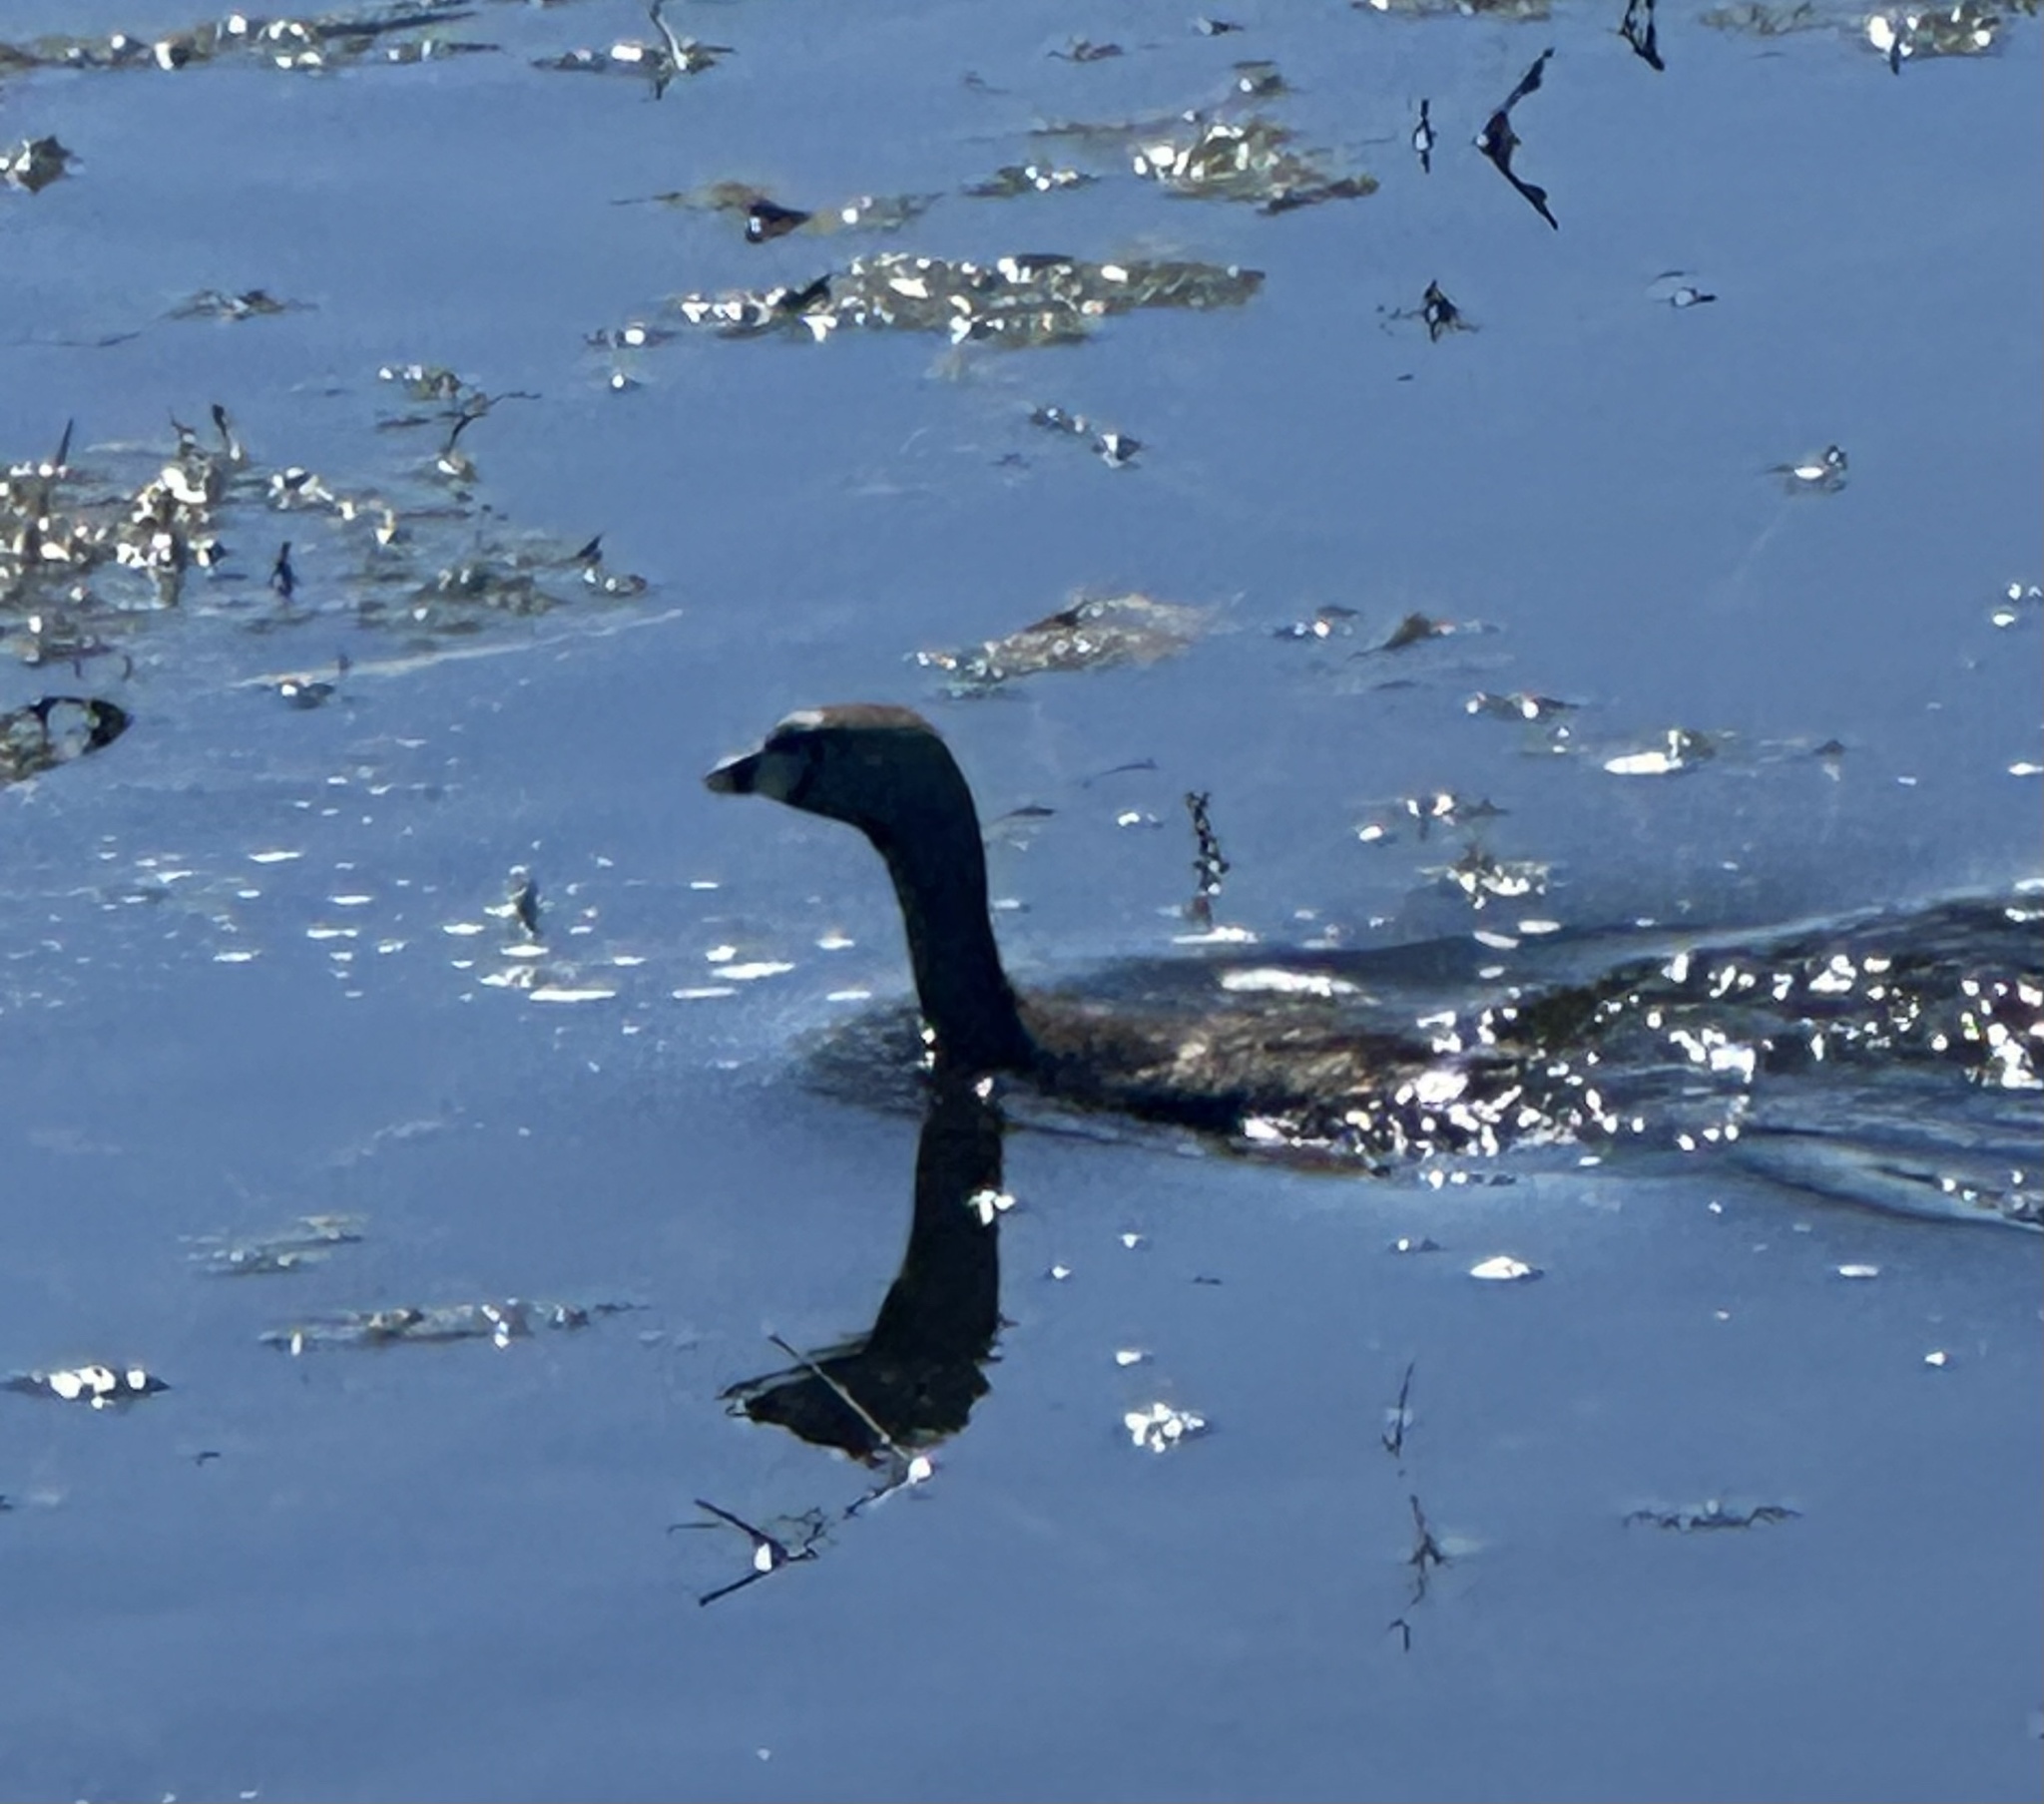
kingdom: Animalia
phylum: Chordata
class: Aves
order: Podicipediformes
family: Podicipedidae
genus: Podilymbus
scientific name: Podilymbus podiceps
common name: Pied-billed grebe
